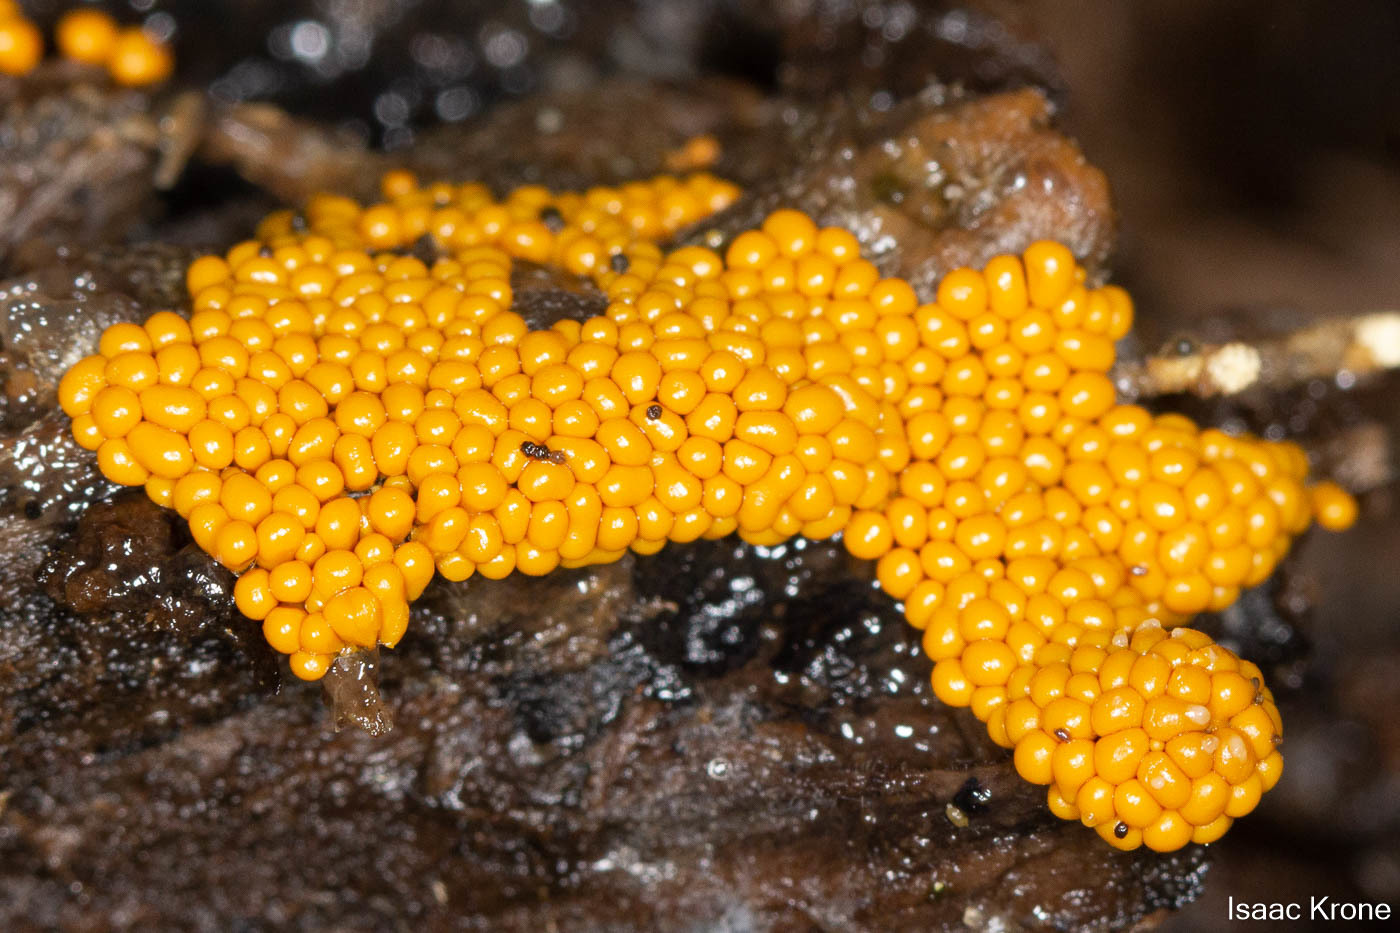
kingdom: Protozoa
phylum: Mycetozoa
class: Myxomycetes
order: Physarales
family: Physaraceae
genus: Leocarpus
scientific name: Leocarpus fragilis
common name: Insect-egg slime
